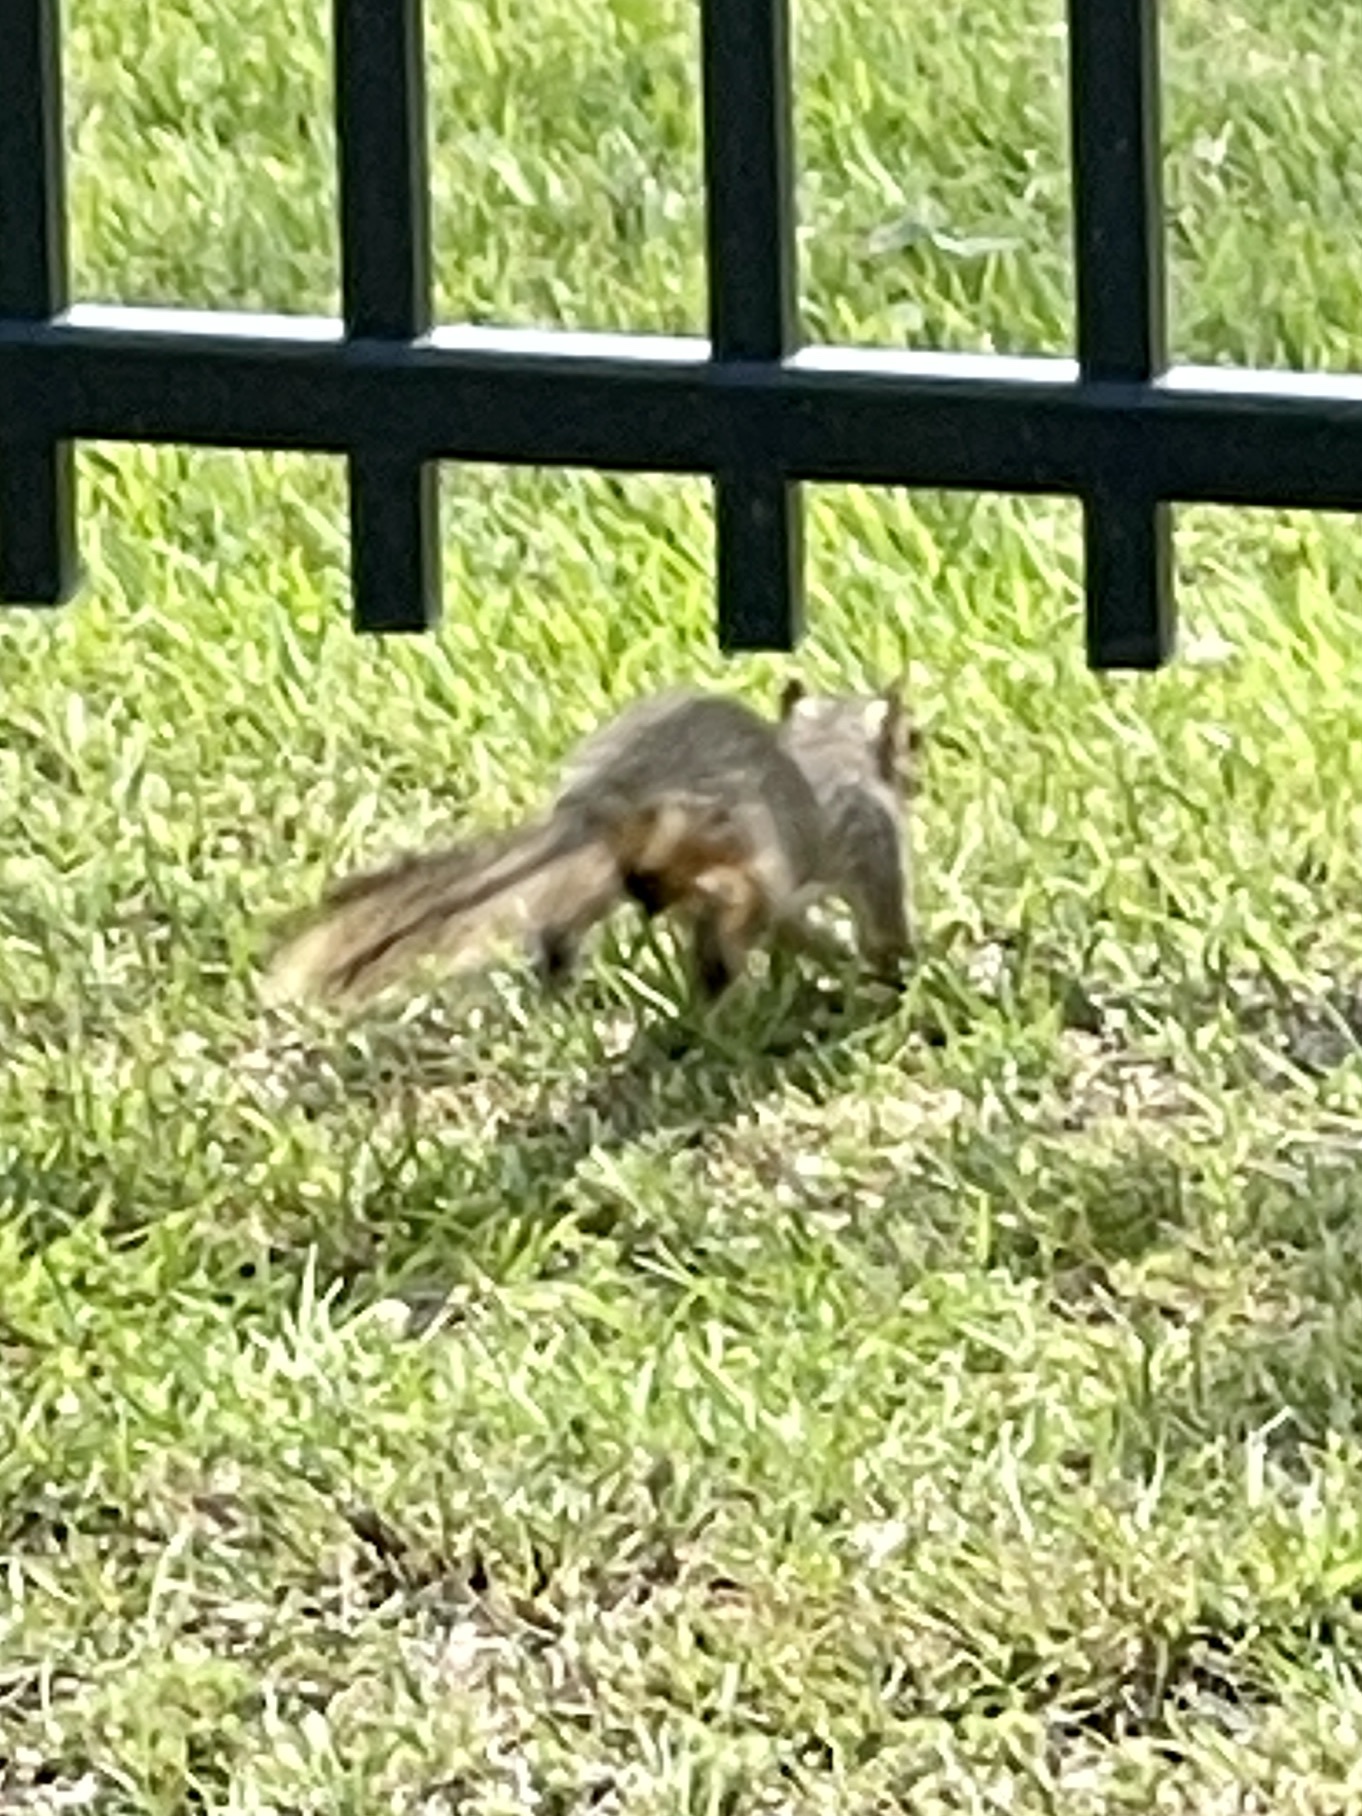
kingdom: Animalia
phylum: Chordata
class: Mammalia
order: Rodentia
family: Sciuridae
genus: Sciurus
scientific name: Sciurus niger
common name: Fox squirrel
